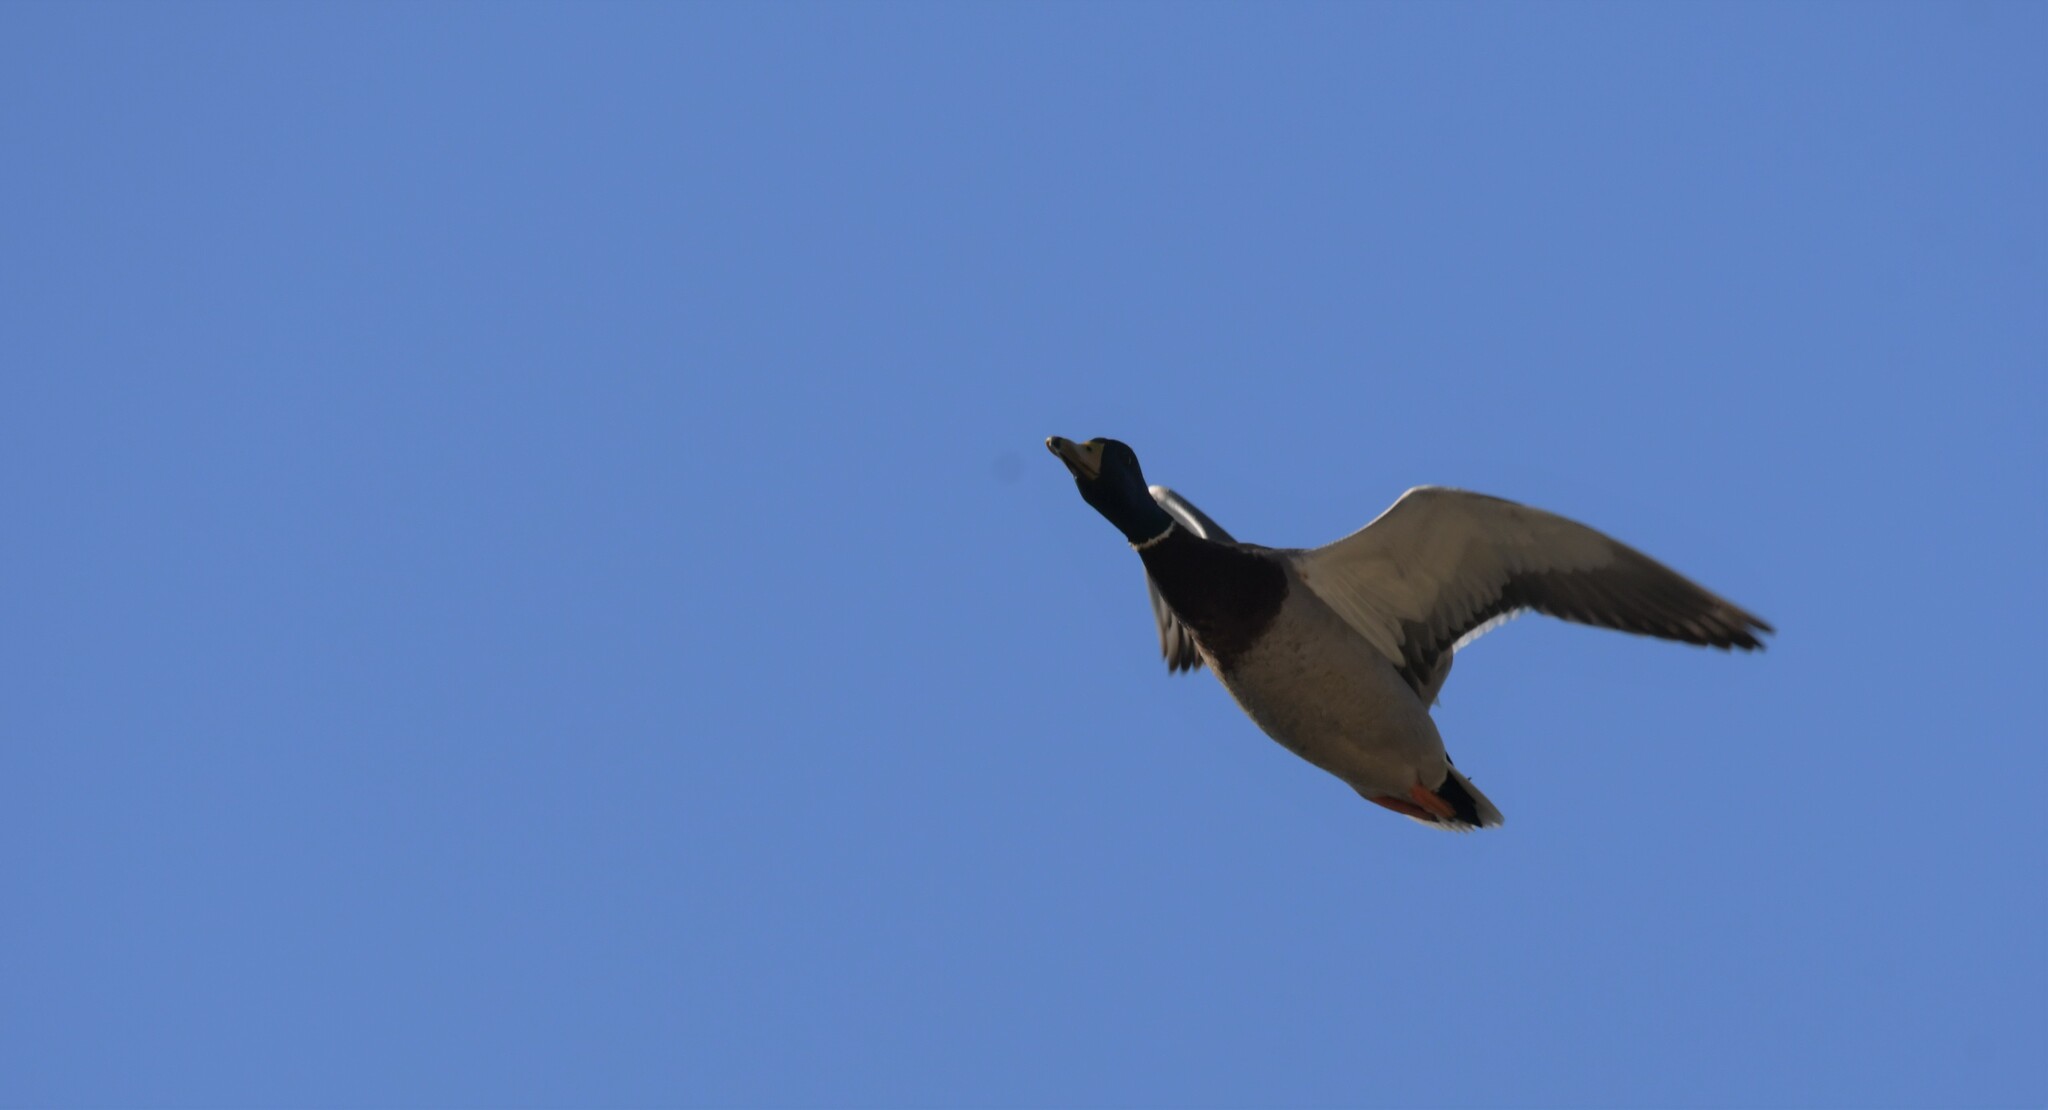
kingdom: Animalia
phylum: Chordata
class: Aves
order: Anseriformes
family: Anatidae
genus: Anas
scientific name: Anas platyrhynchos
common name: Mallard
